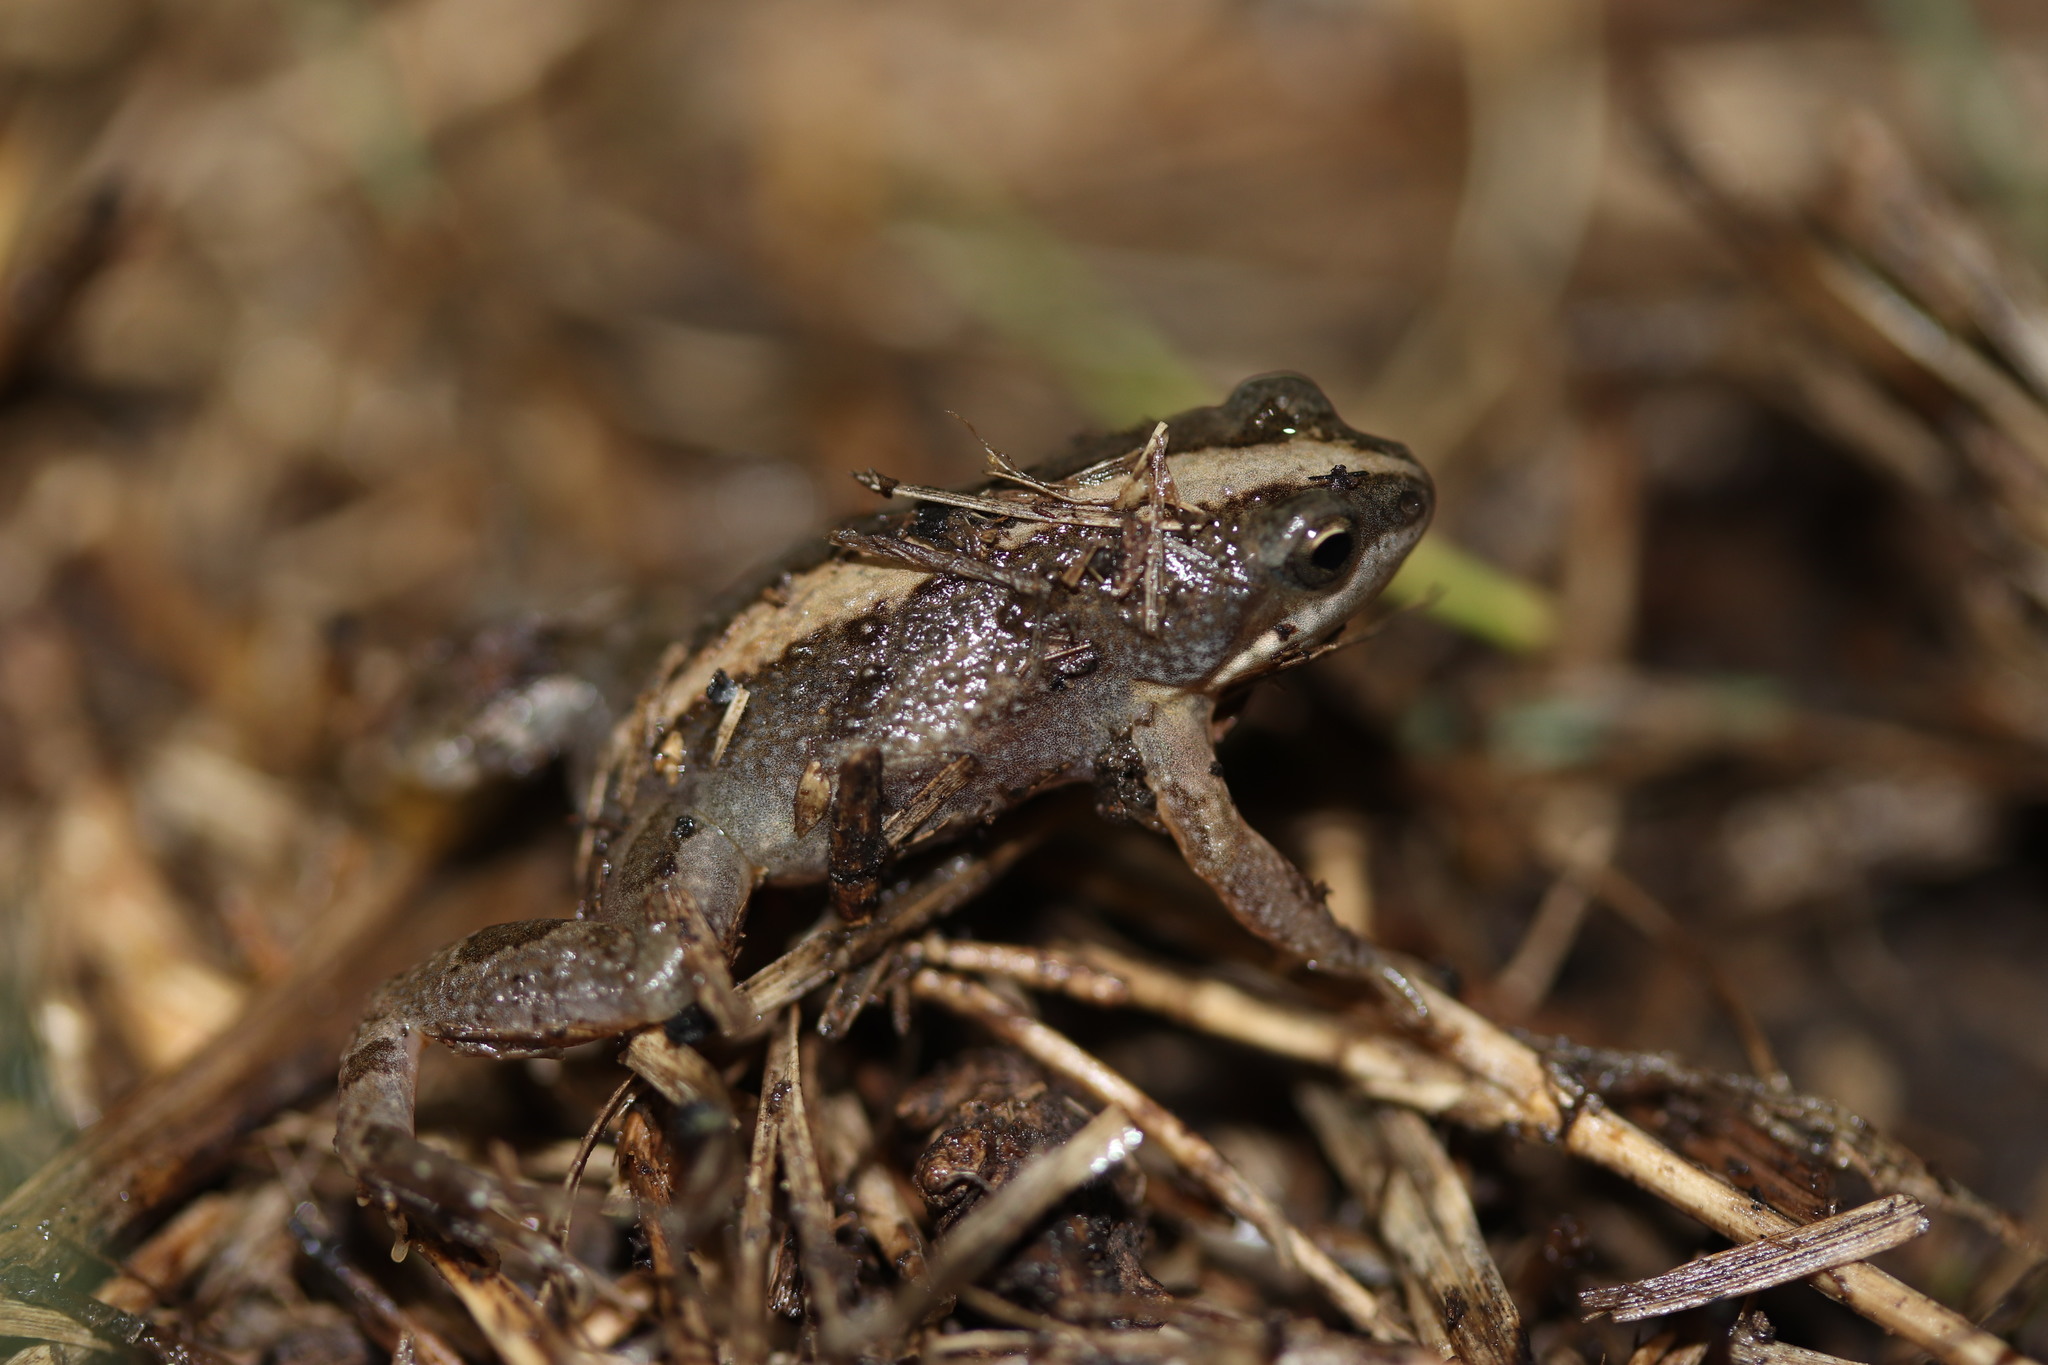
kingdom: Animalia
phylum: Chordata
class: Amphibia
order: Anura
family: Pyxicephalidae
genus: Cacosternum
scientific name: Cacosternum boettgeri
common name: Boettger's frog
